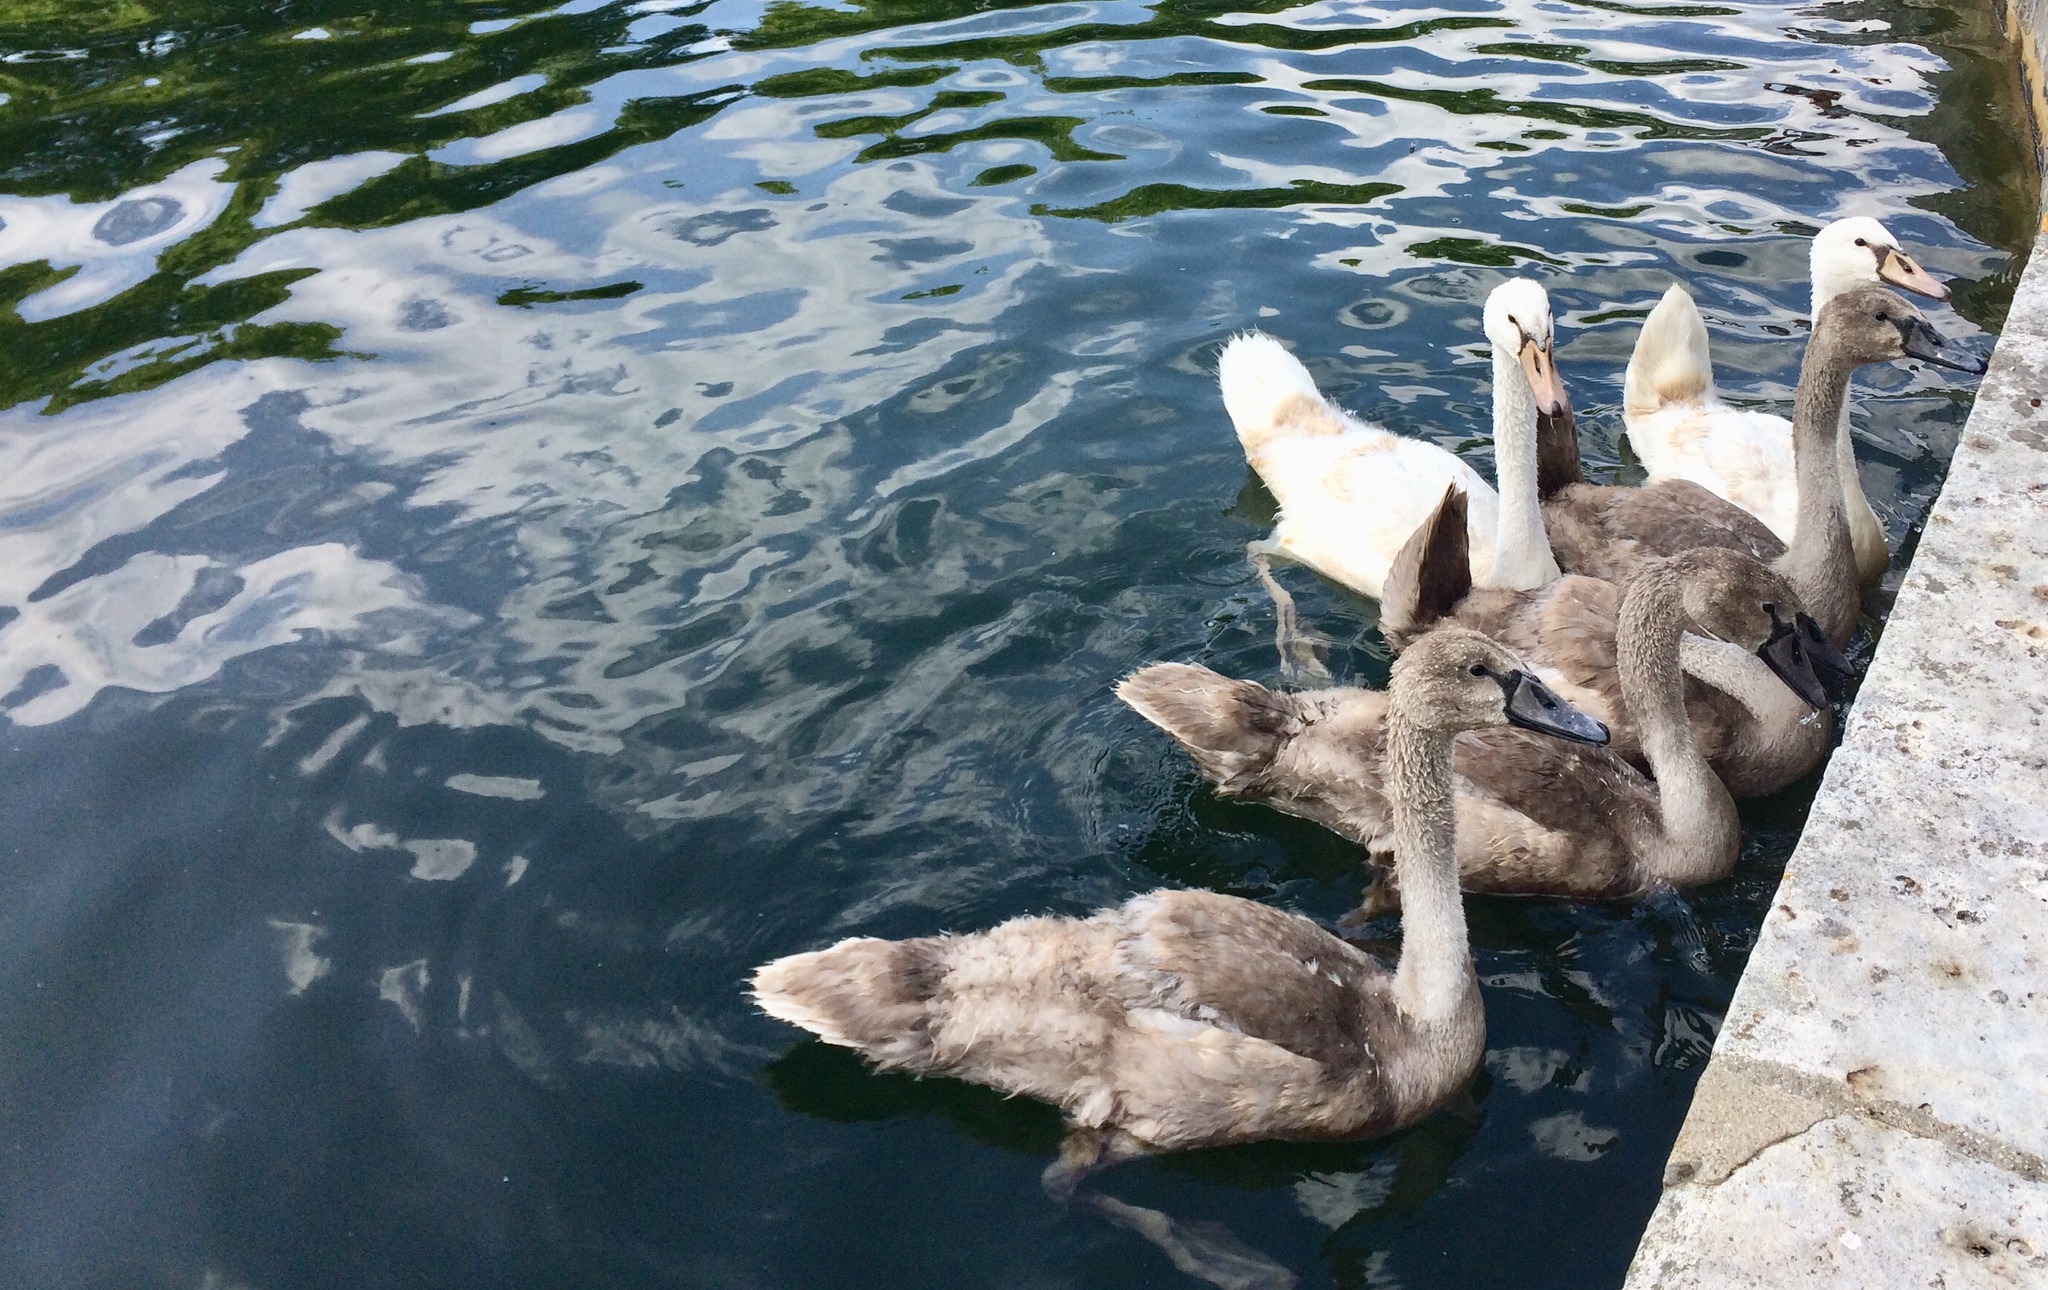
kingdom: Animalia
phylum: Chordata
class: Aves
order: Anseriformes
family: Anatidae
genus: Cygnus
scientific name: Cygnus olor
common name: Mute swan
